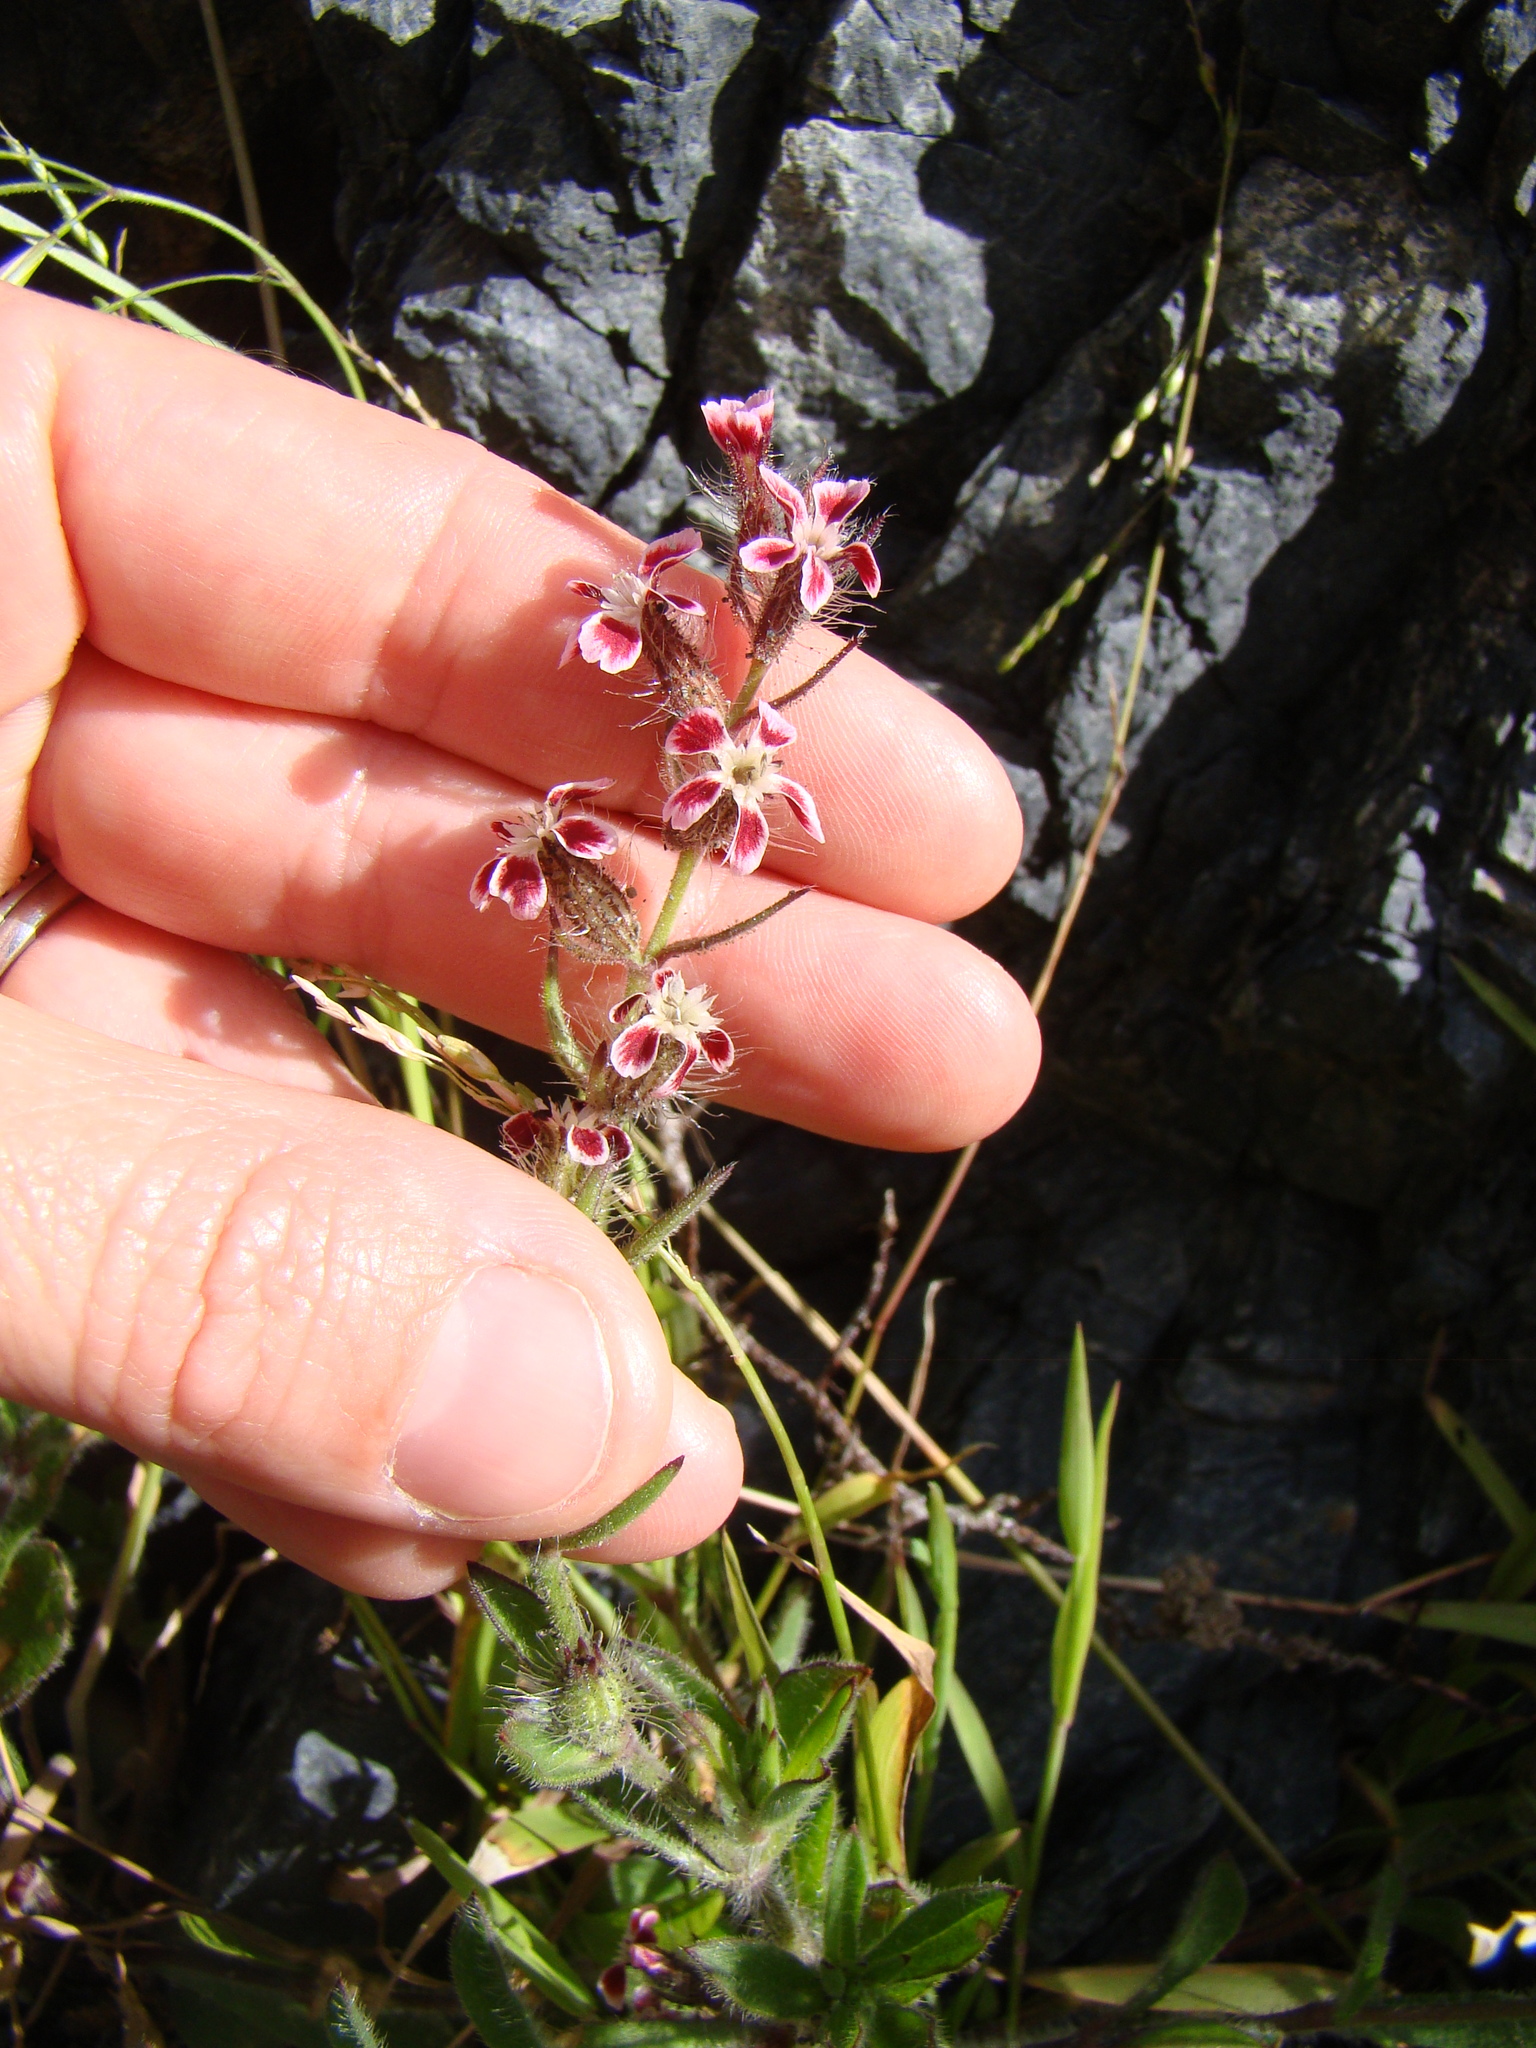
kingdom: Plantae
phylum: Tracheophyta
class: Magnoliopsida
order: Caryophyllales
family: Caryophyllaceae
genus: Silene
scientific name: Silene gallica
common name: Small-flowered catchfly
